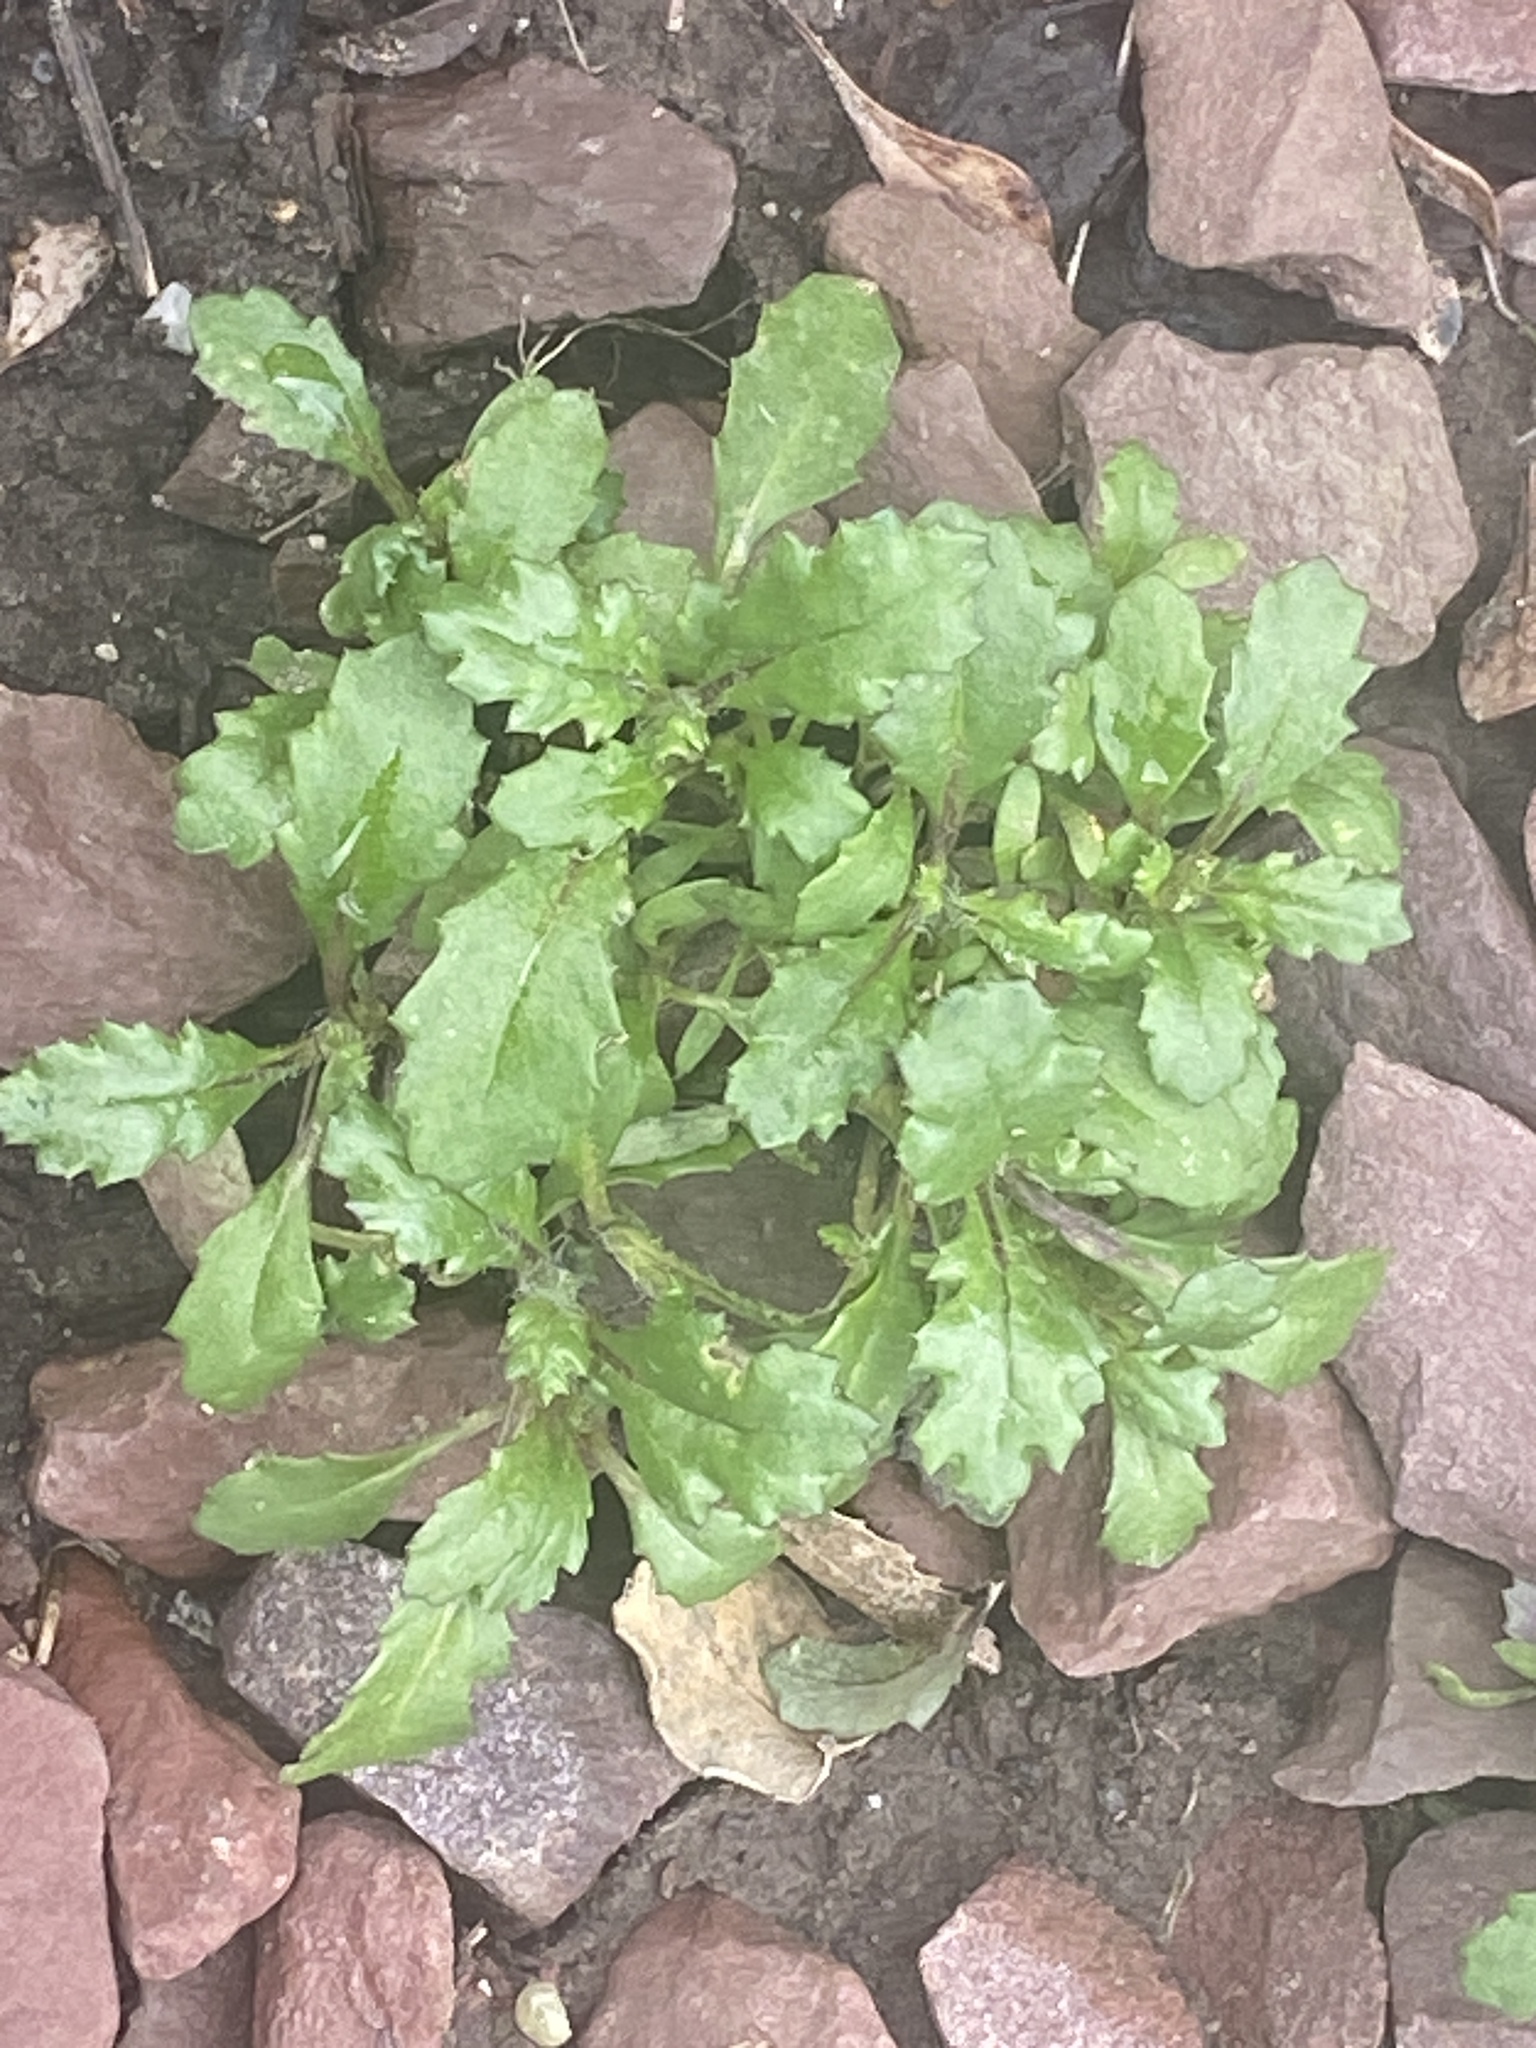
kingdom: Plantae
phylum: Tracheophyta
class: Magnoliopsida
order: Asterales
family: Asteraceae
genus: Senecio
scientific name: Senecio vulgaris
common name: Old-man-in-the-spring
